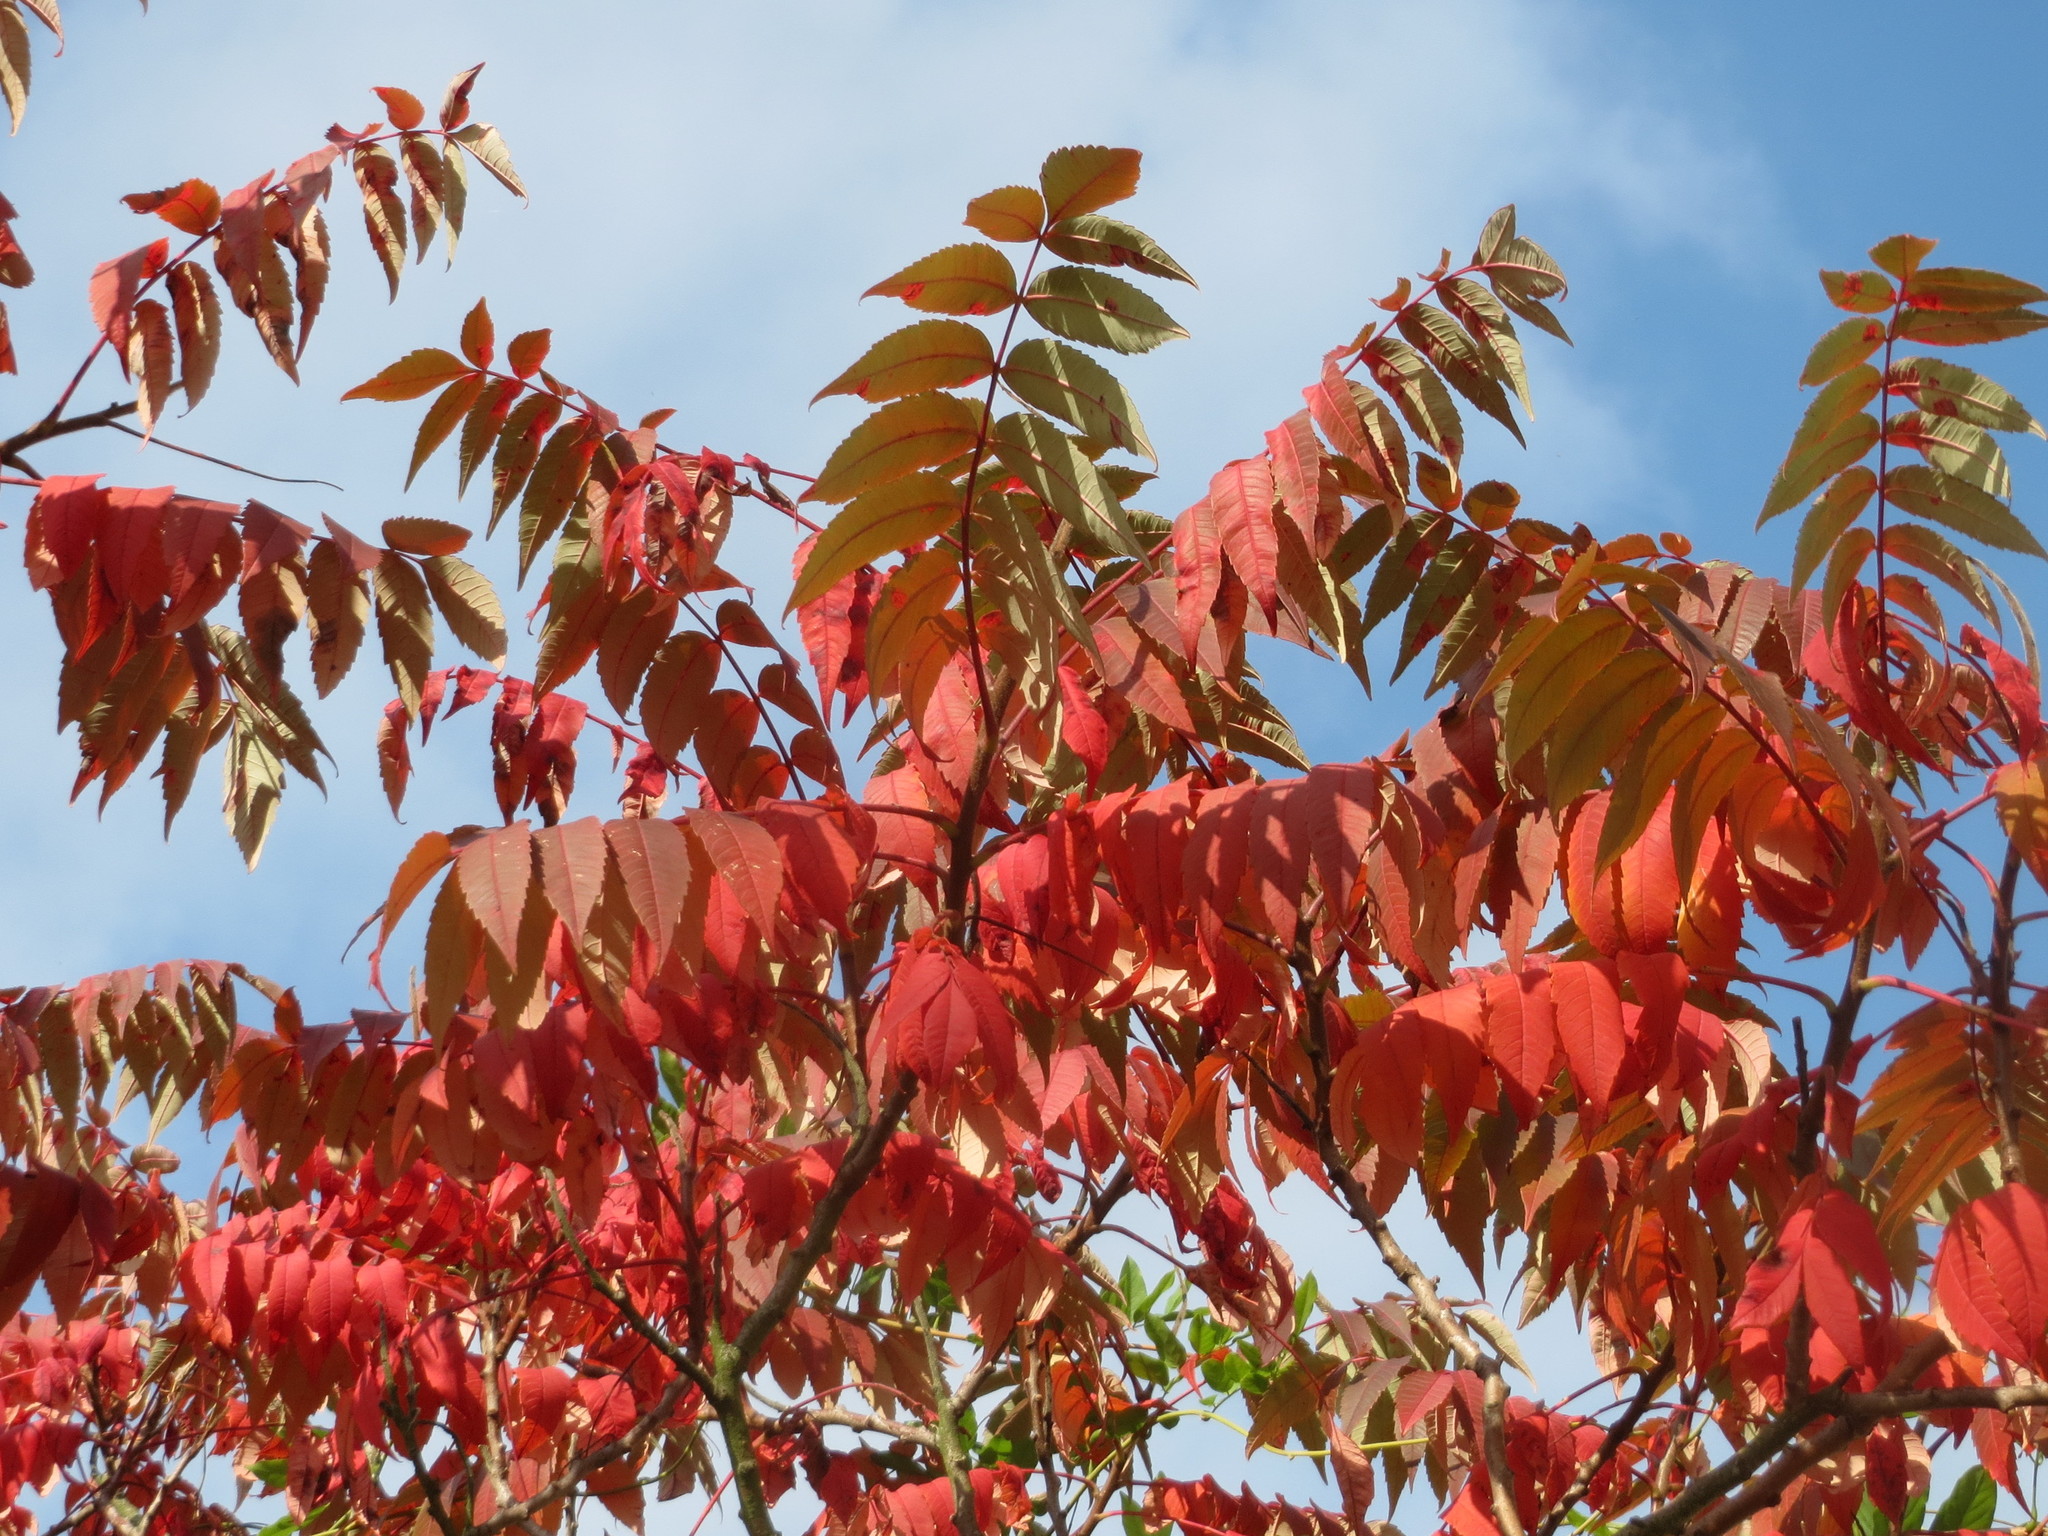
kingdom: Plantae
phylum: Tracheophyta
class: Magnoliopsida
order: Sapindales
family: Anacardiaceae
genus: Rhus
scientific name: Rhus typhina
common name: Staghorn sumac
